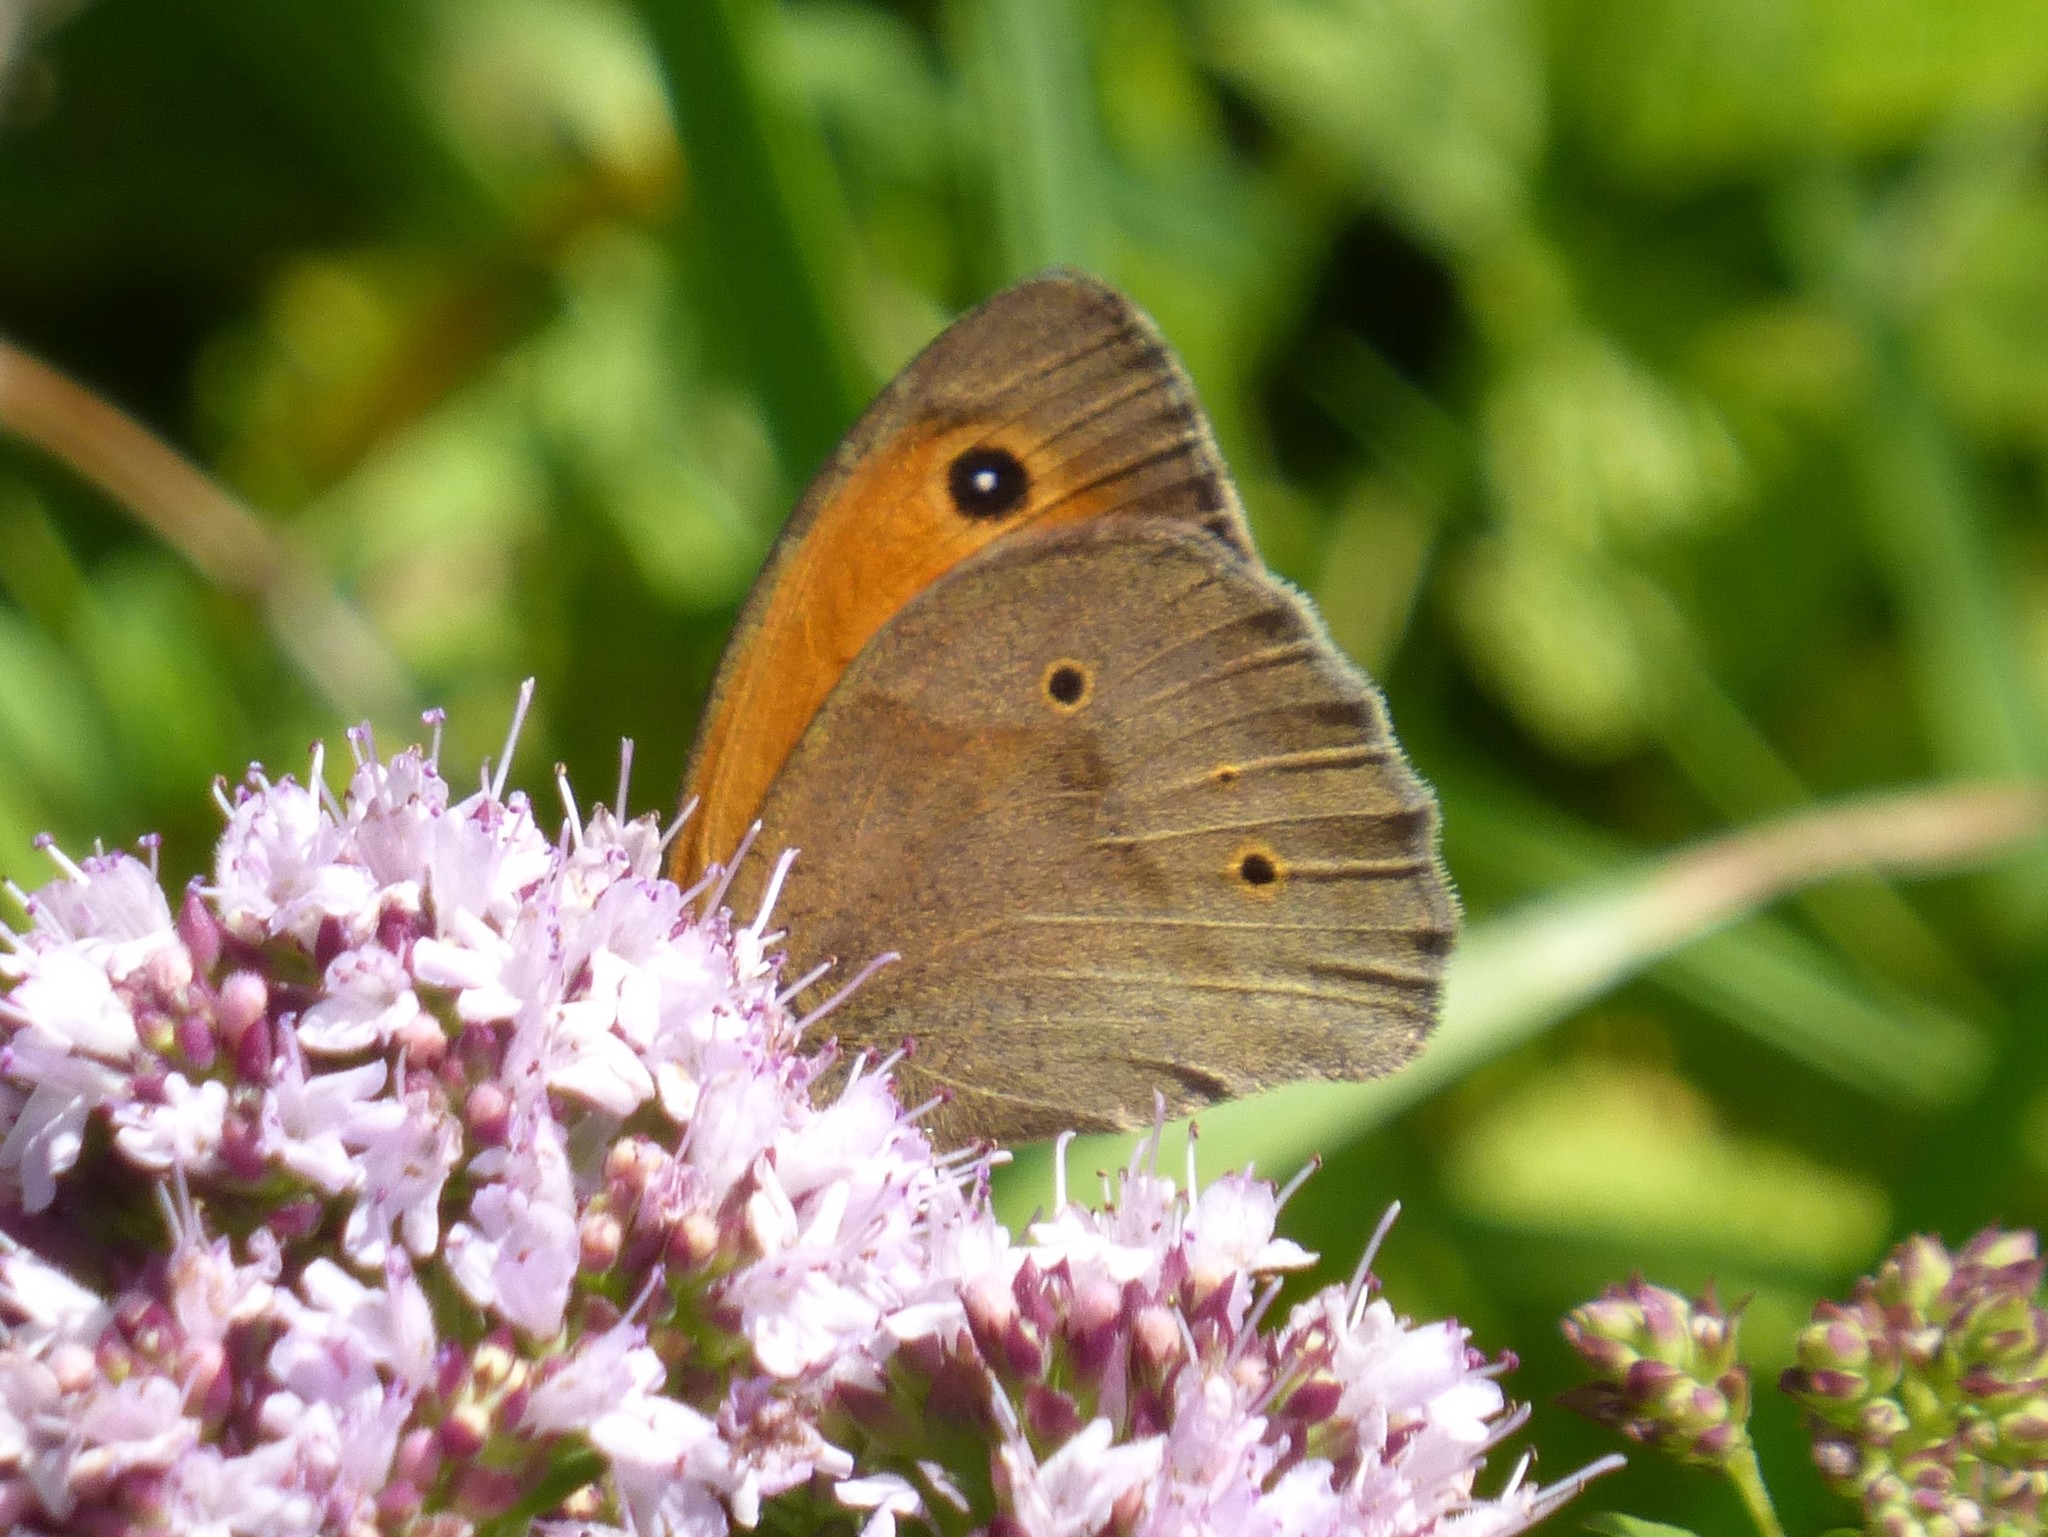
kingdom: Animalia
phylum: Arthropoda
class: Insecta
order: Lepidoptera
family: Nymphalidae
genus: Maniola
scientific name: Maniola jurtina
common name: Meadow brown
